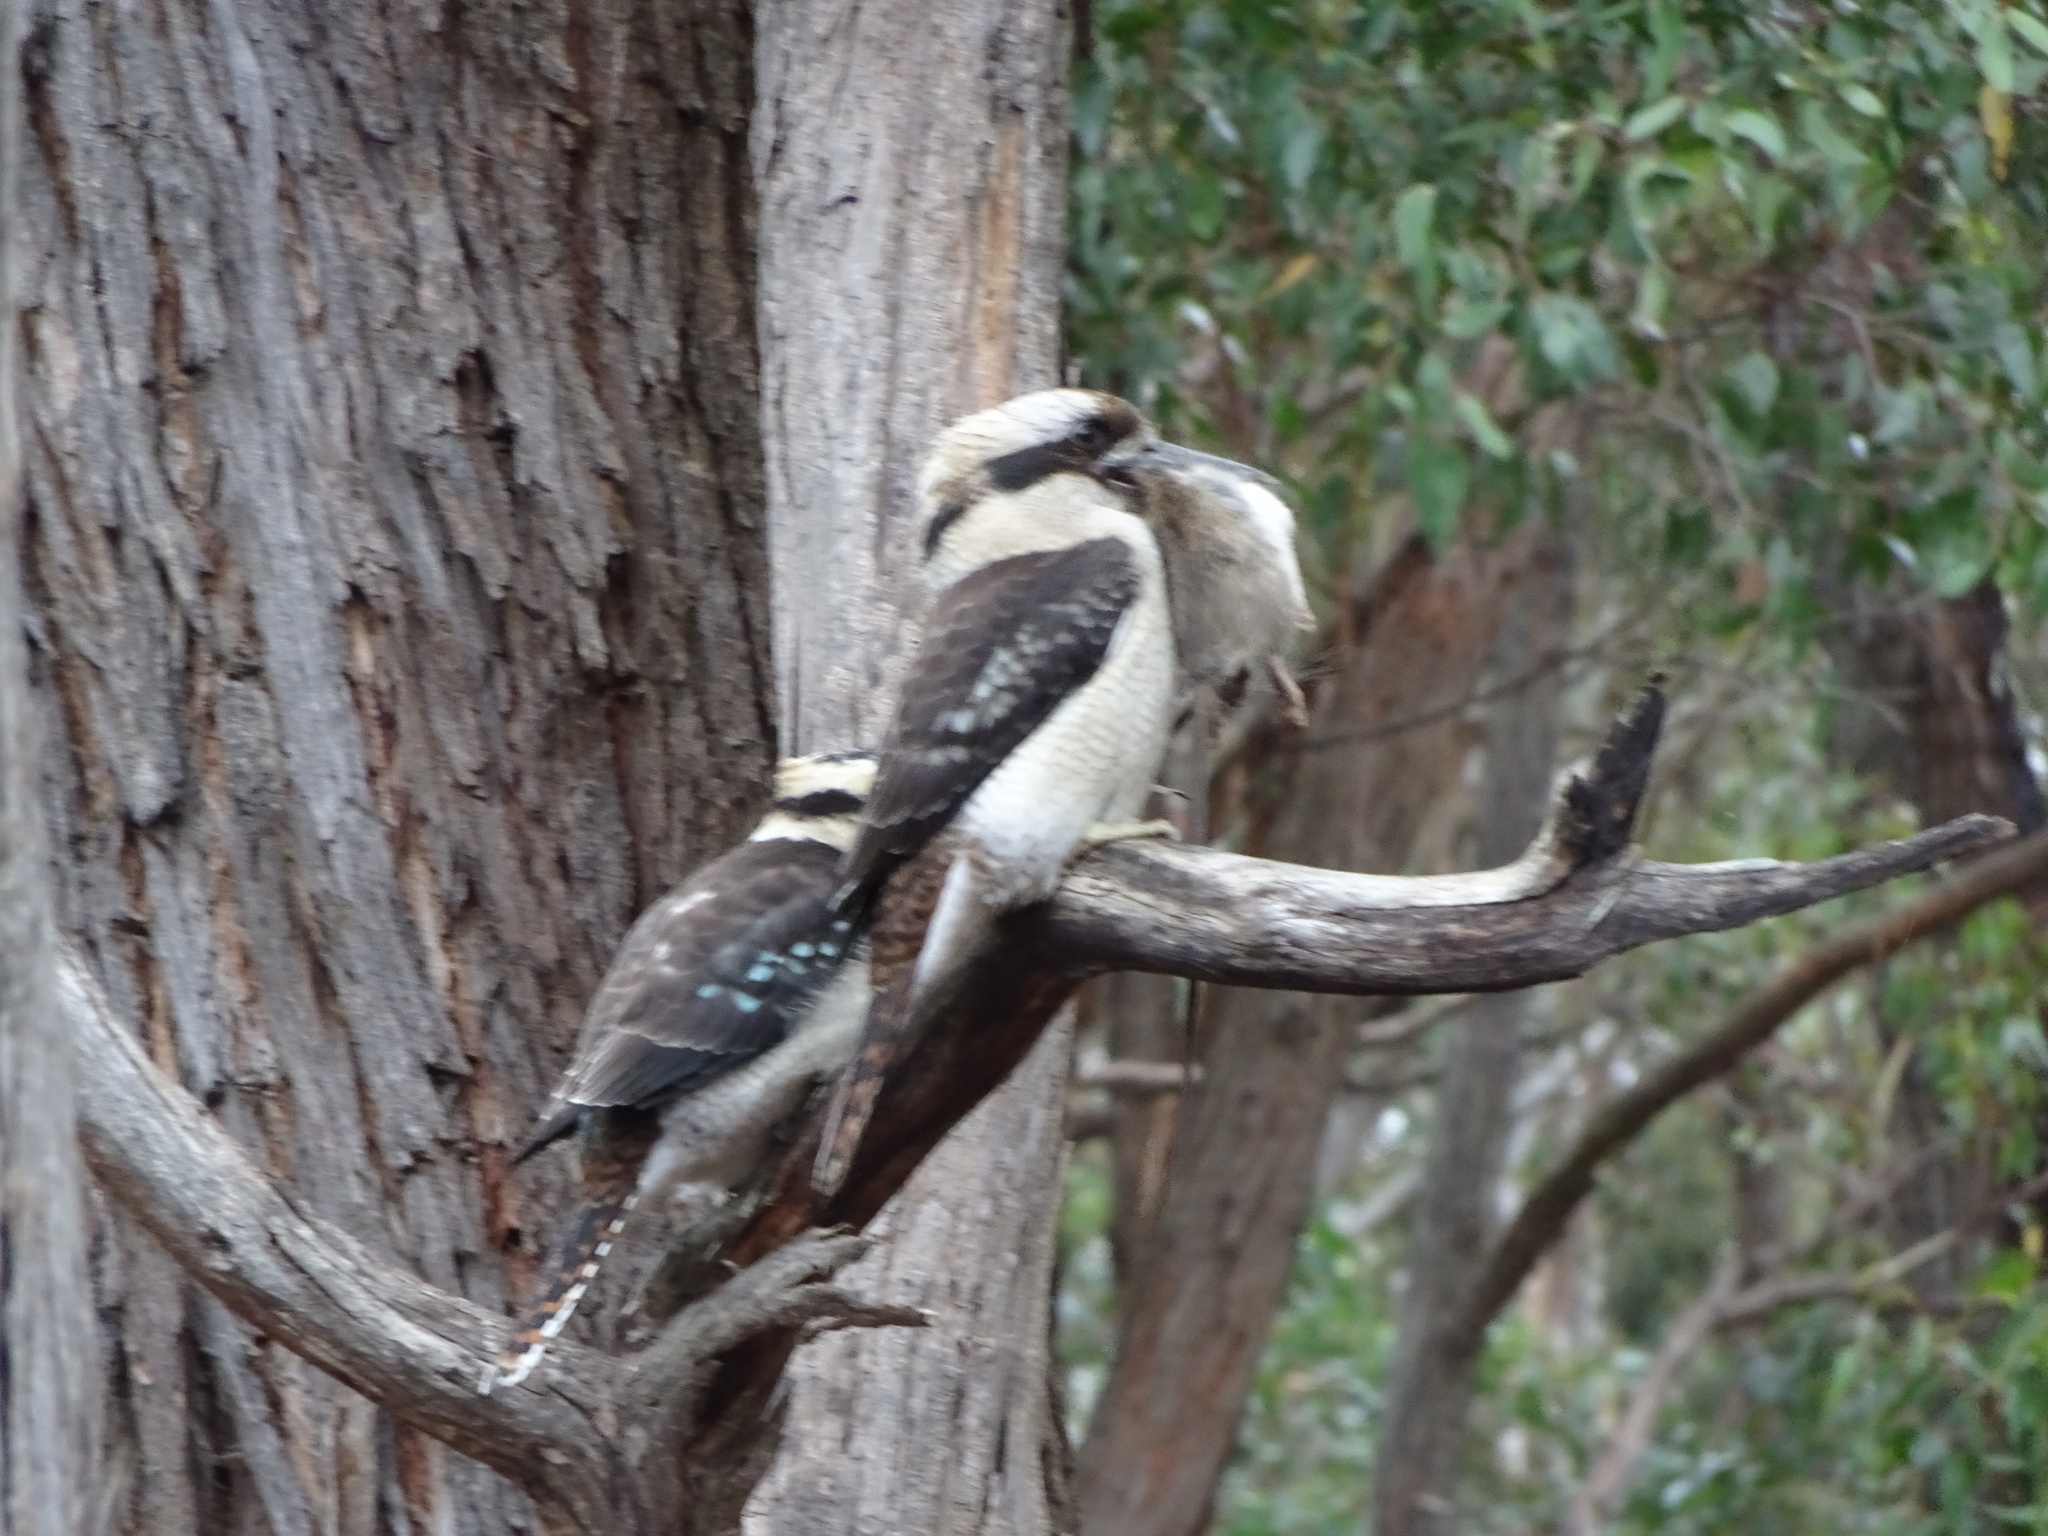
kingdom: Animalia
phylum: Chordata
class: Aves
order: Coraciiformes
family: Alcedinidae
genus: Dacelo
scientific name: Dacelo novaeguineae
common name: Laughing kookaburra
